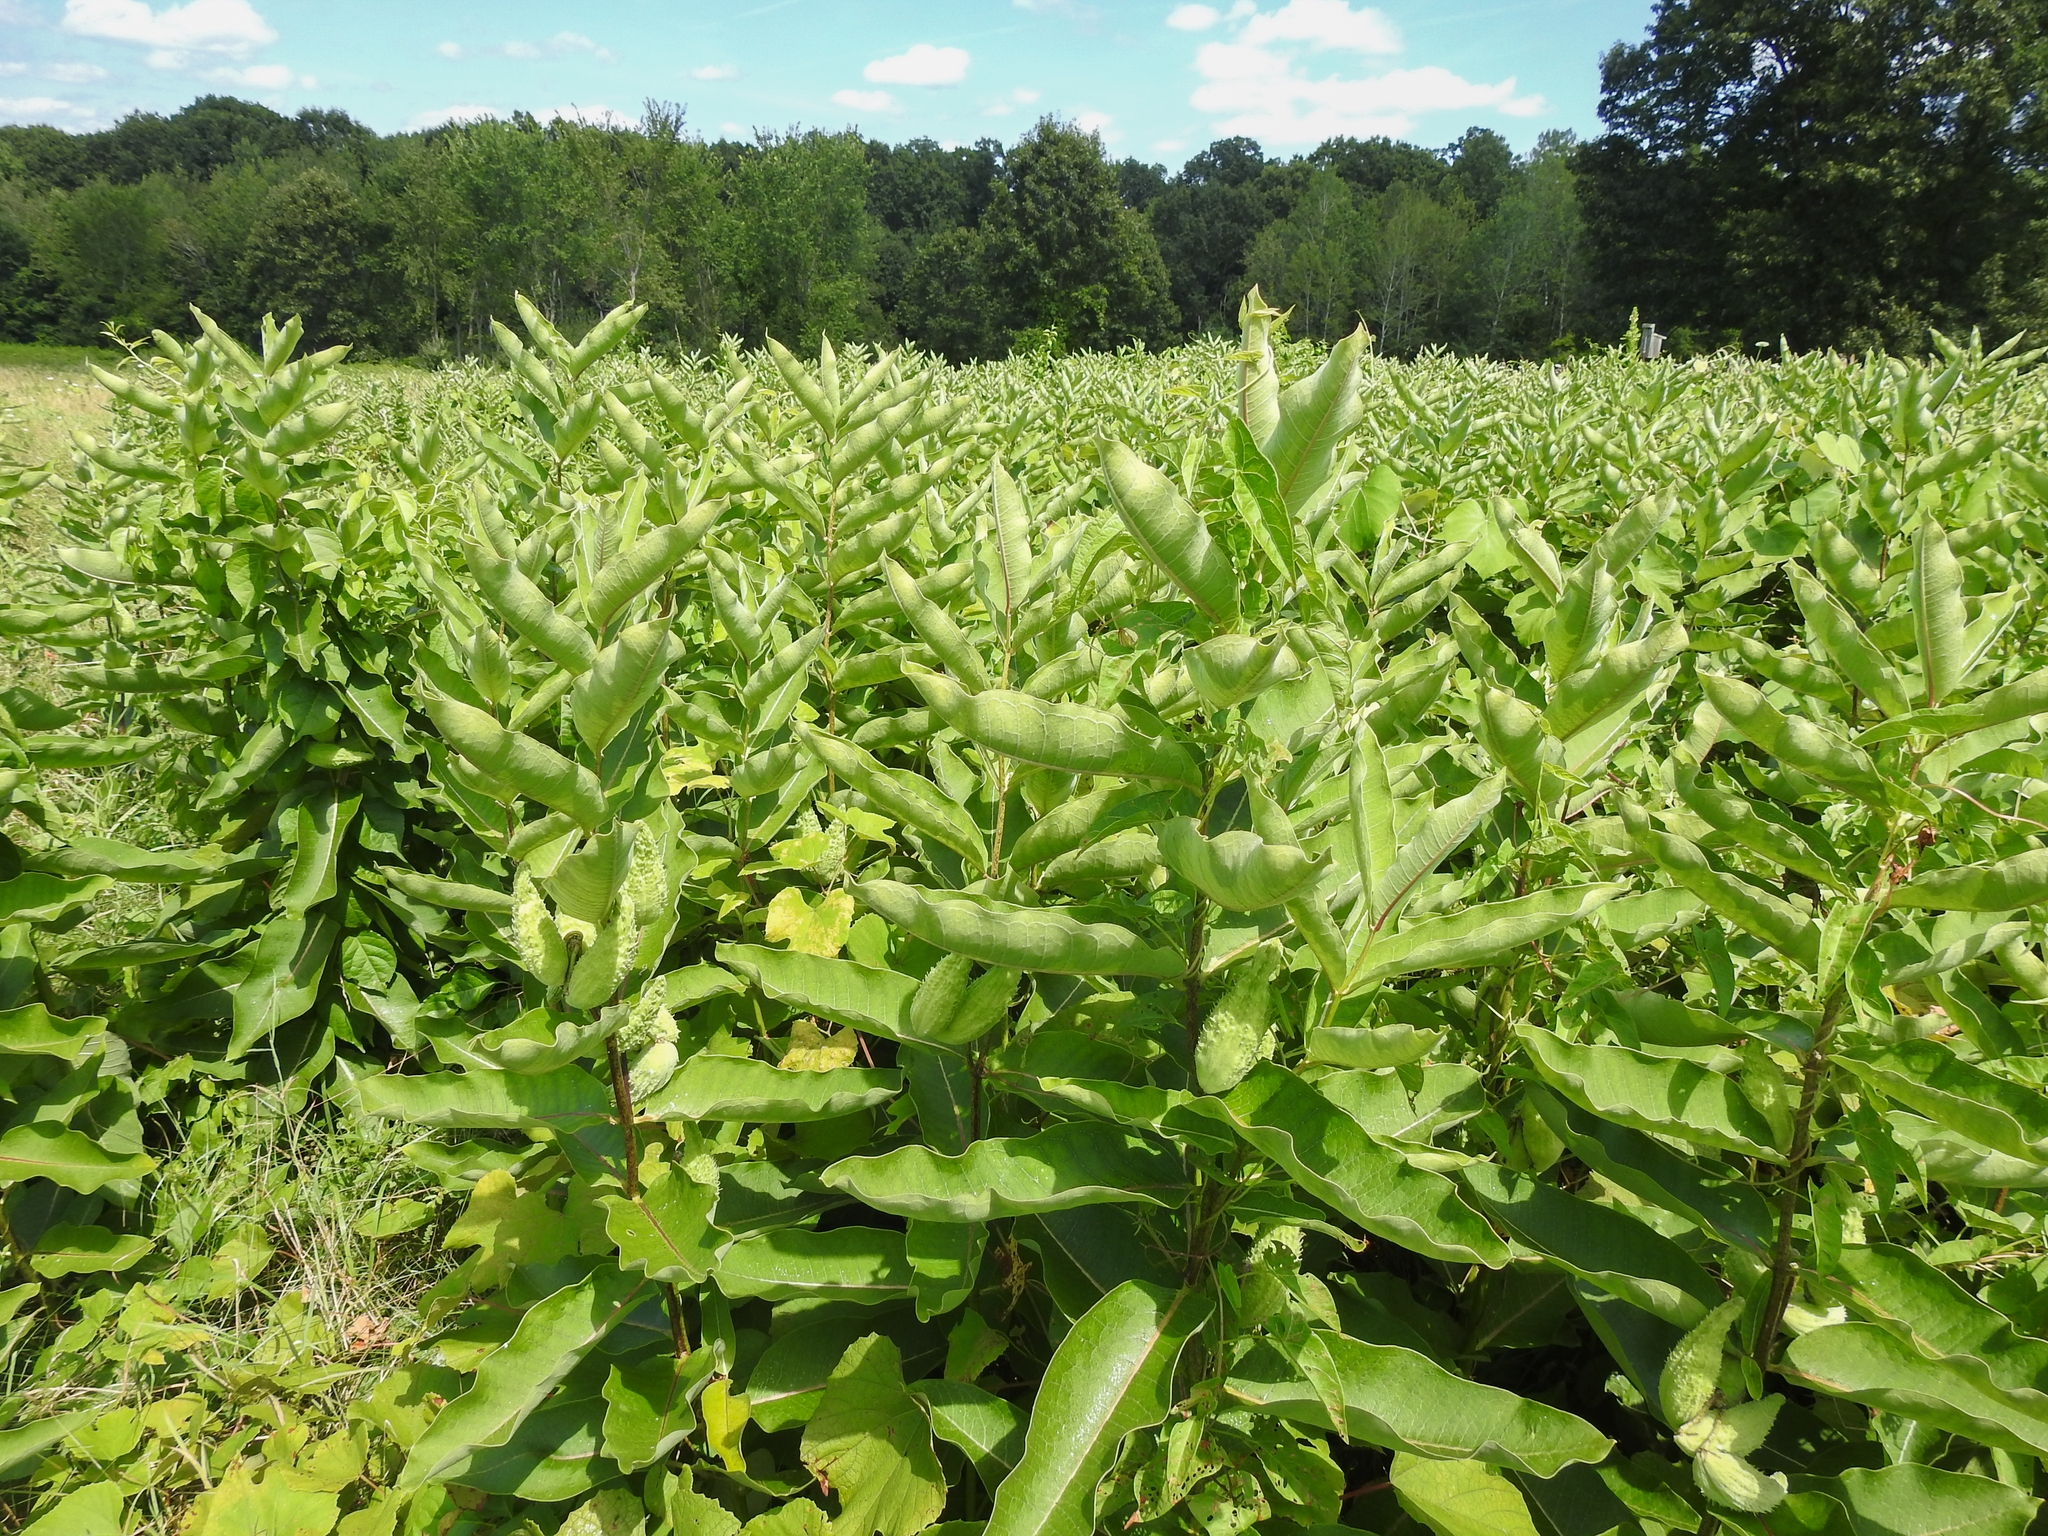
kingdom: Plantae
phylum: Tracheophyta
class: Magnoliopsida
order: Gentianales
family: Apocynaceae
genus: Asclepias
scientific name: Asclepias syriaca
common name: Common milkweed
